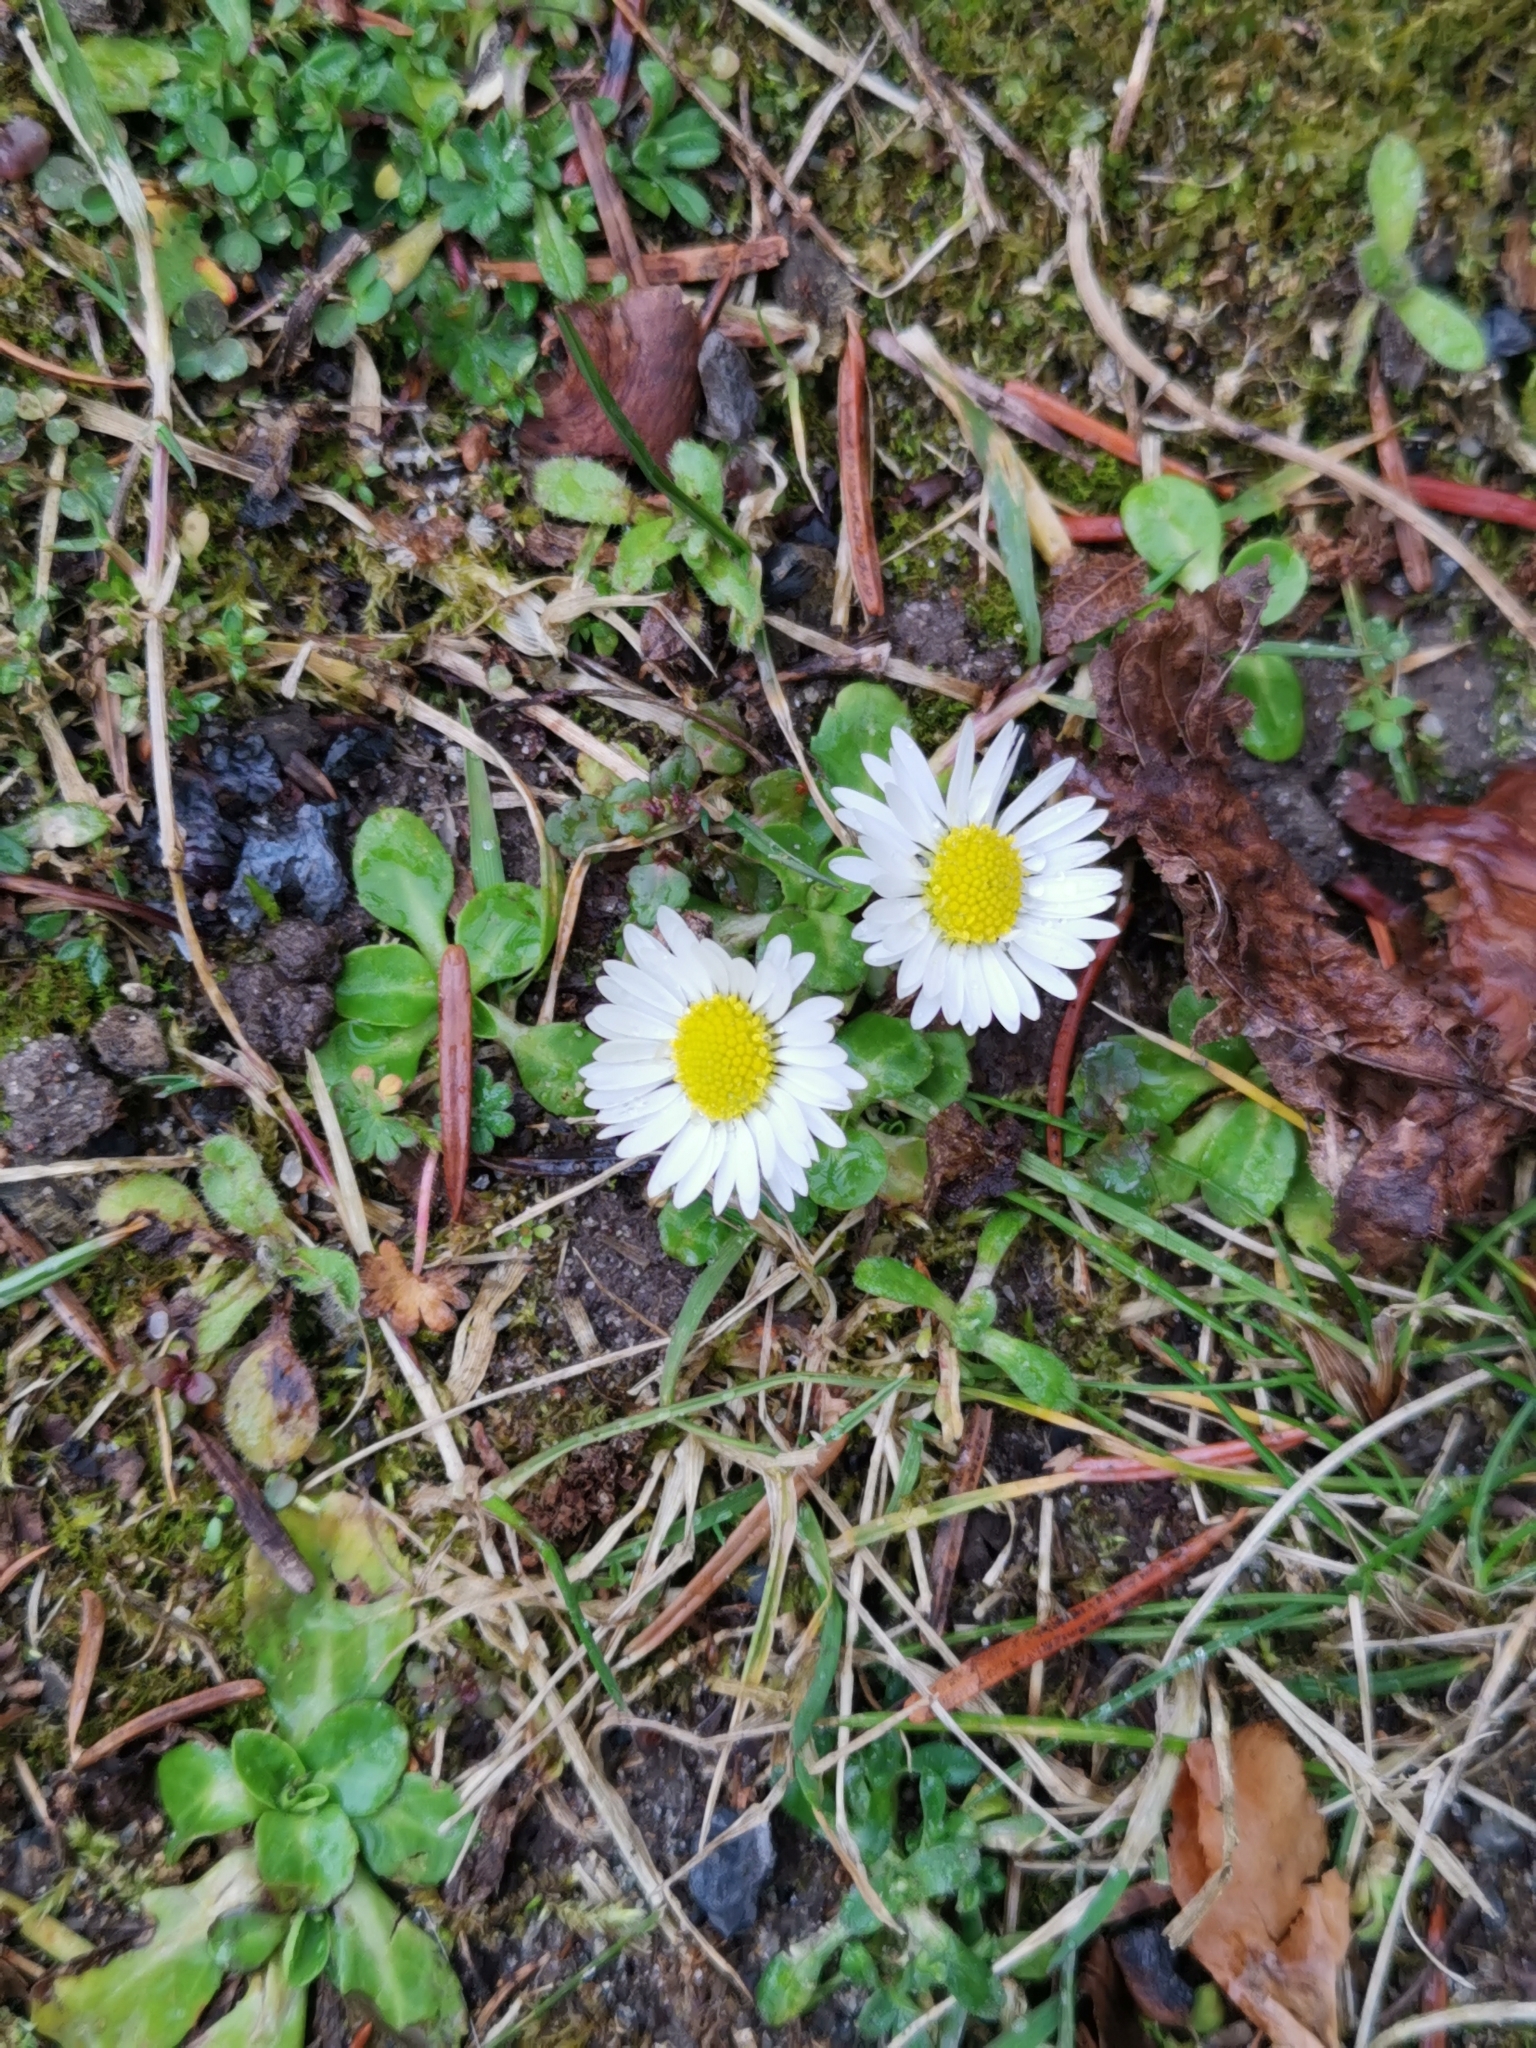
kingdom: Plantae
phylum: Tracheophyta
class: Magnoliopsida
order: Asterales
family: Asteraceae
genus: Bellis
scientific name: Bellis perennis
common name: Lawndaisy
